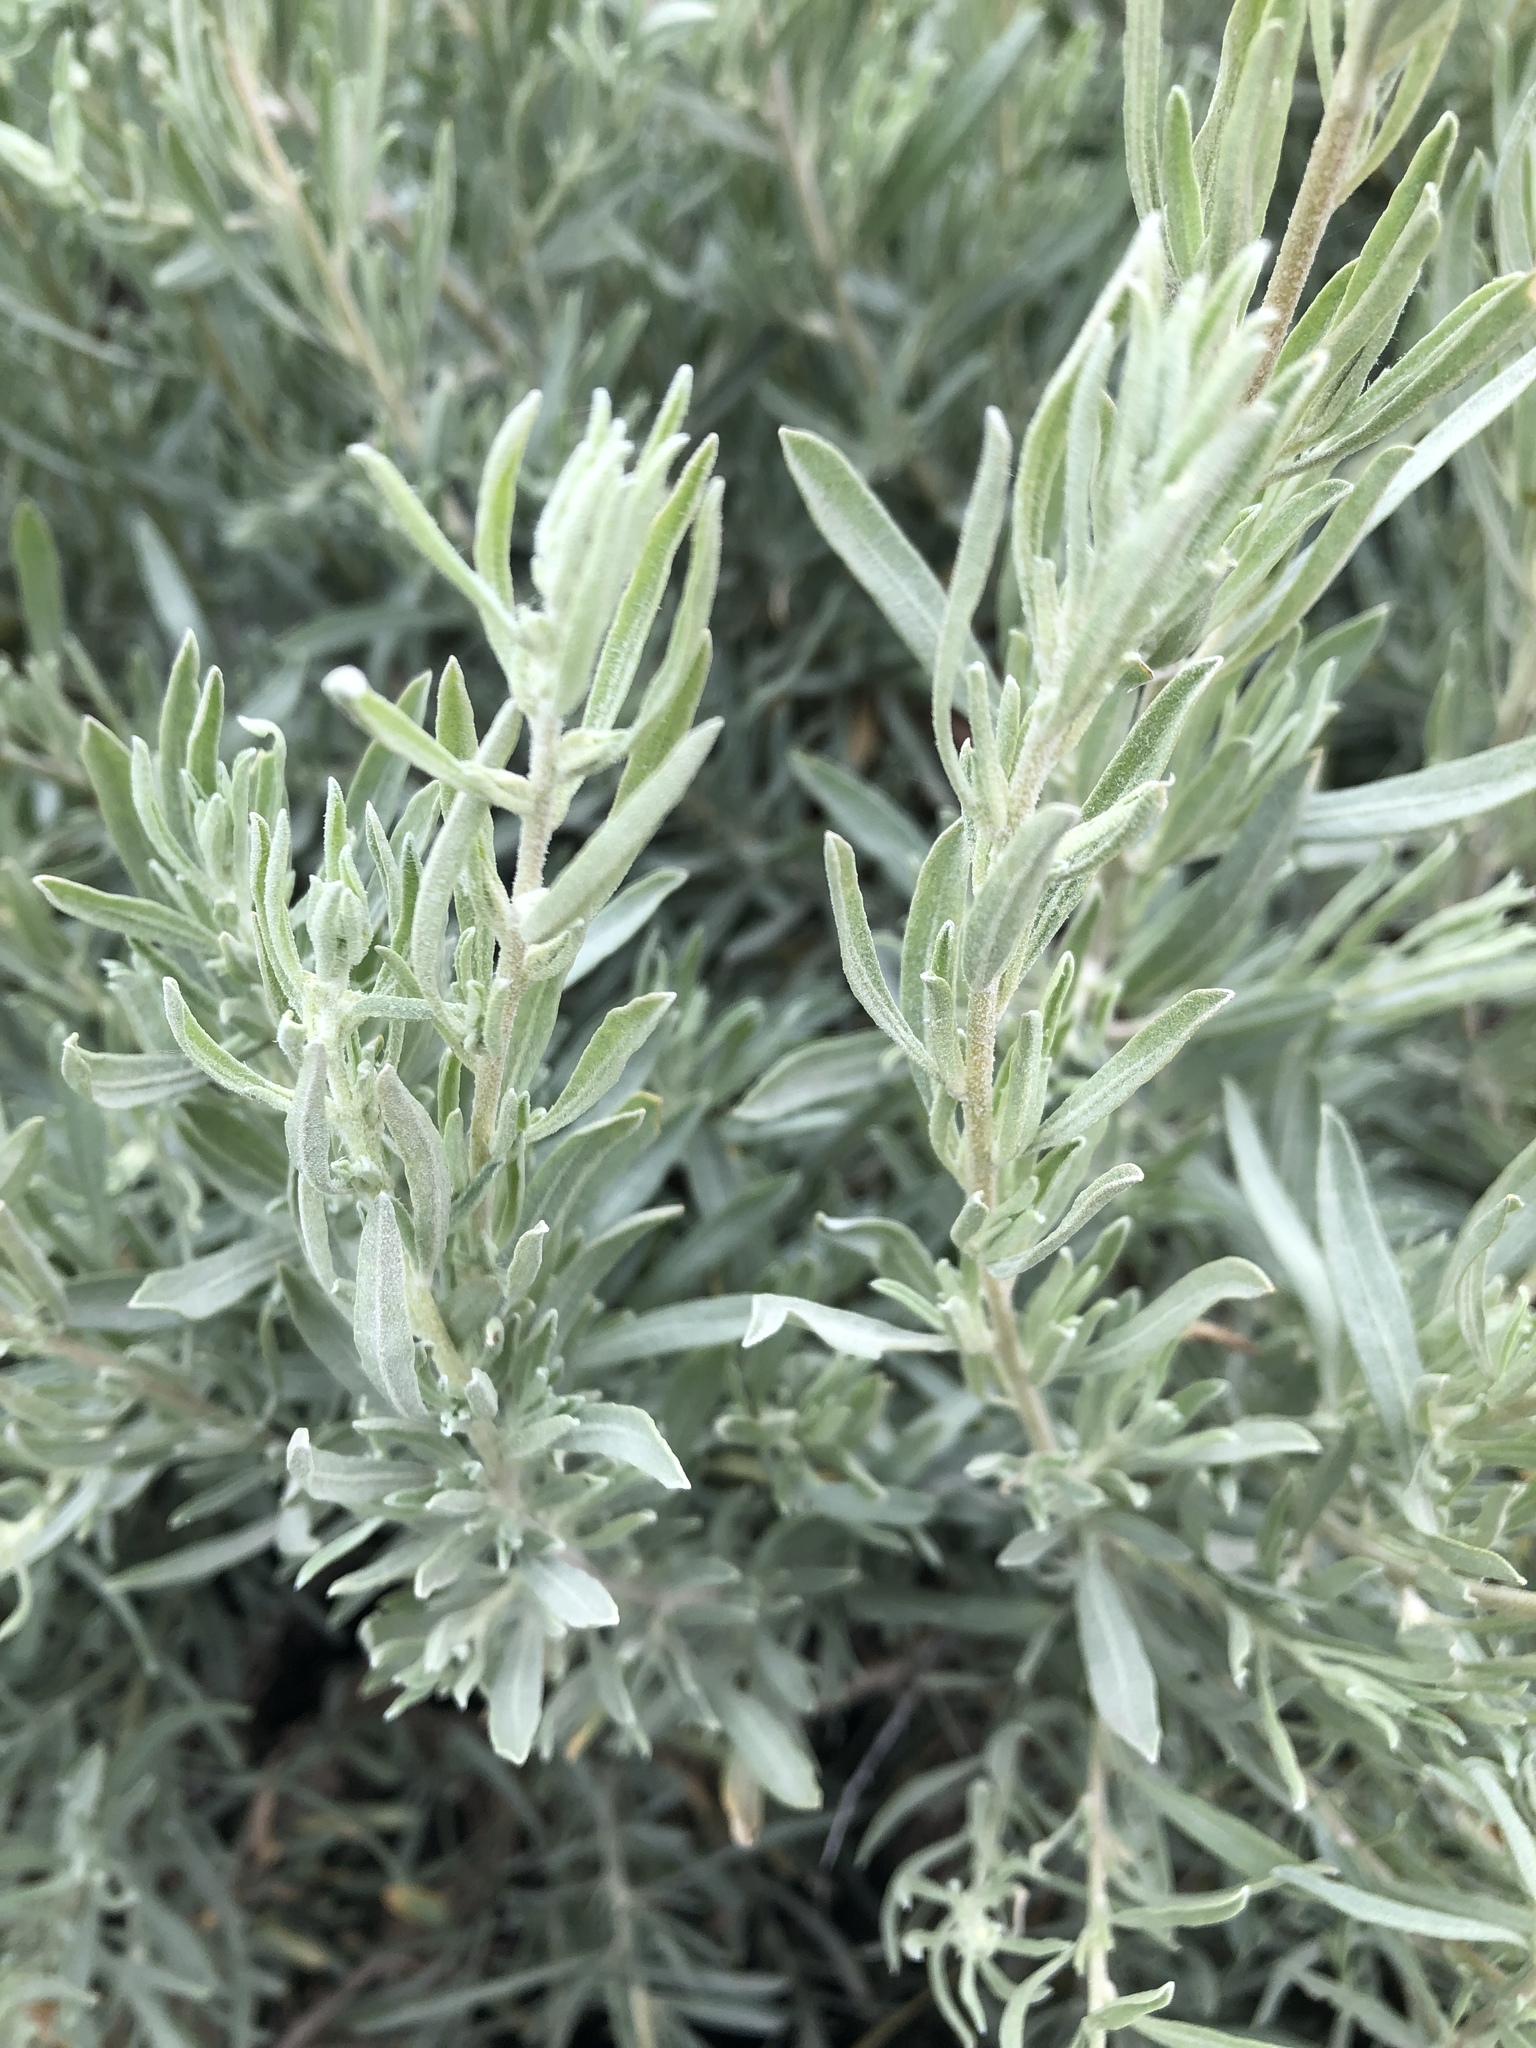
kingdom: Plantae
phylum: Tracheophyta
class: Magnoliopsida
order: Caryophyllales
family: Amaranthaceae
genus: Atriplex
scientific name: Atriplex canescens
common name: Four-wing saltbush
